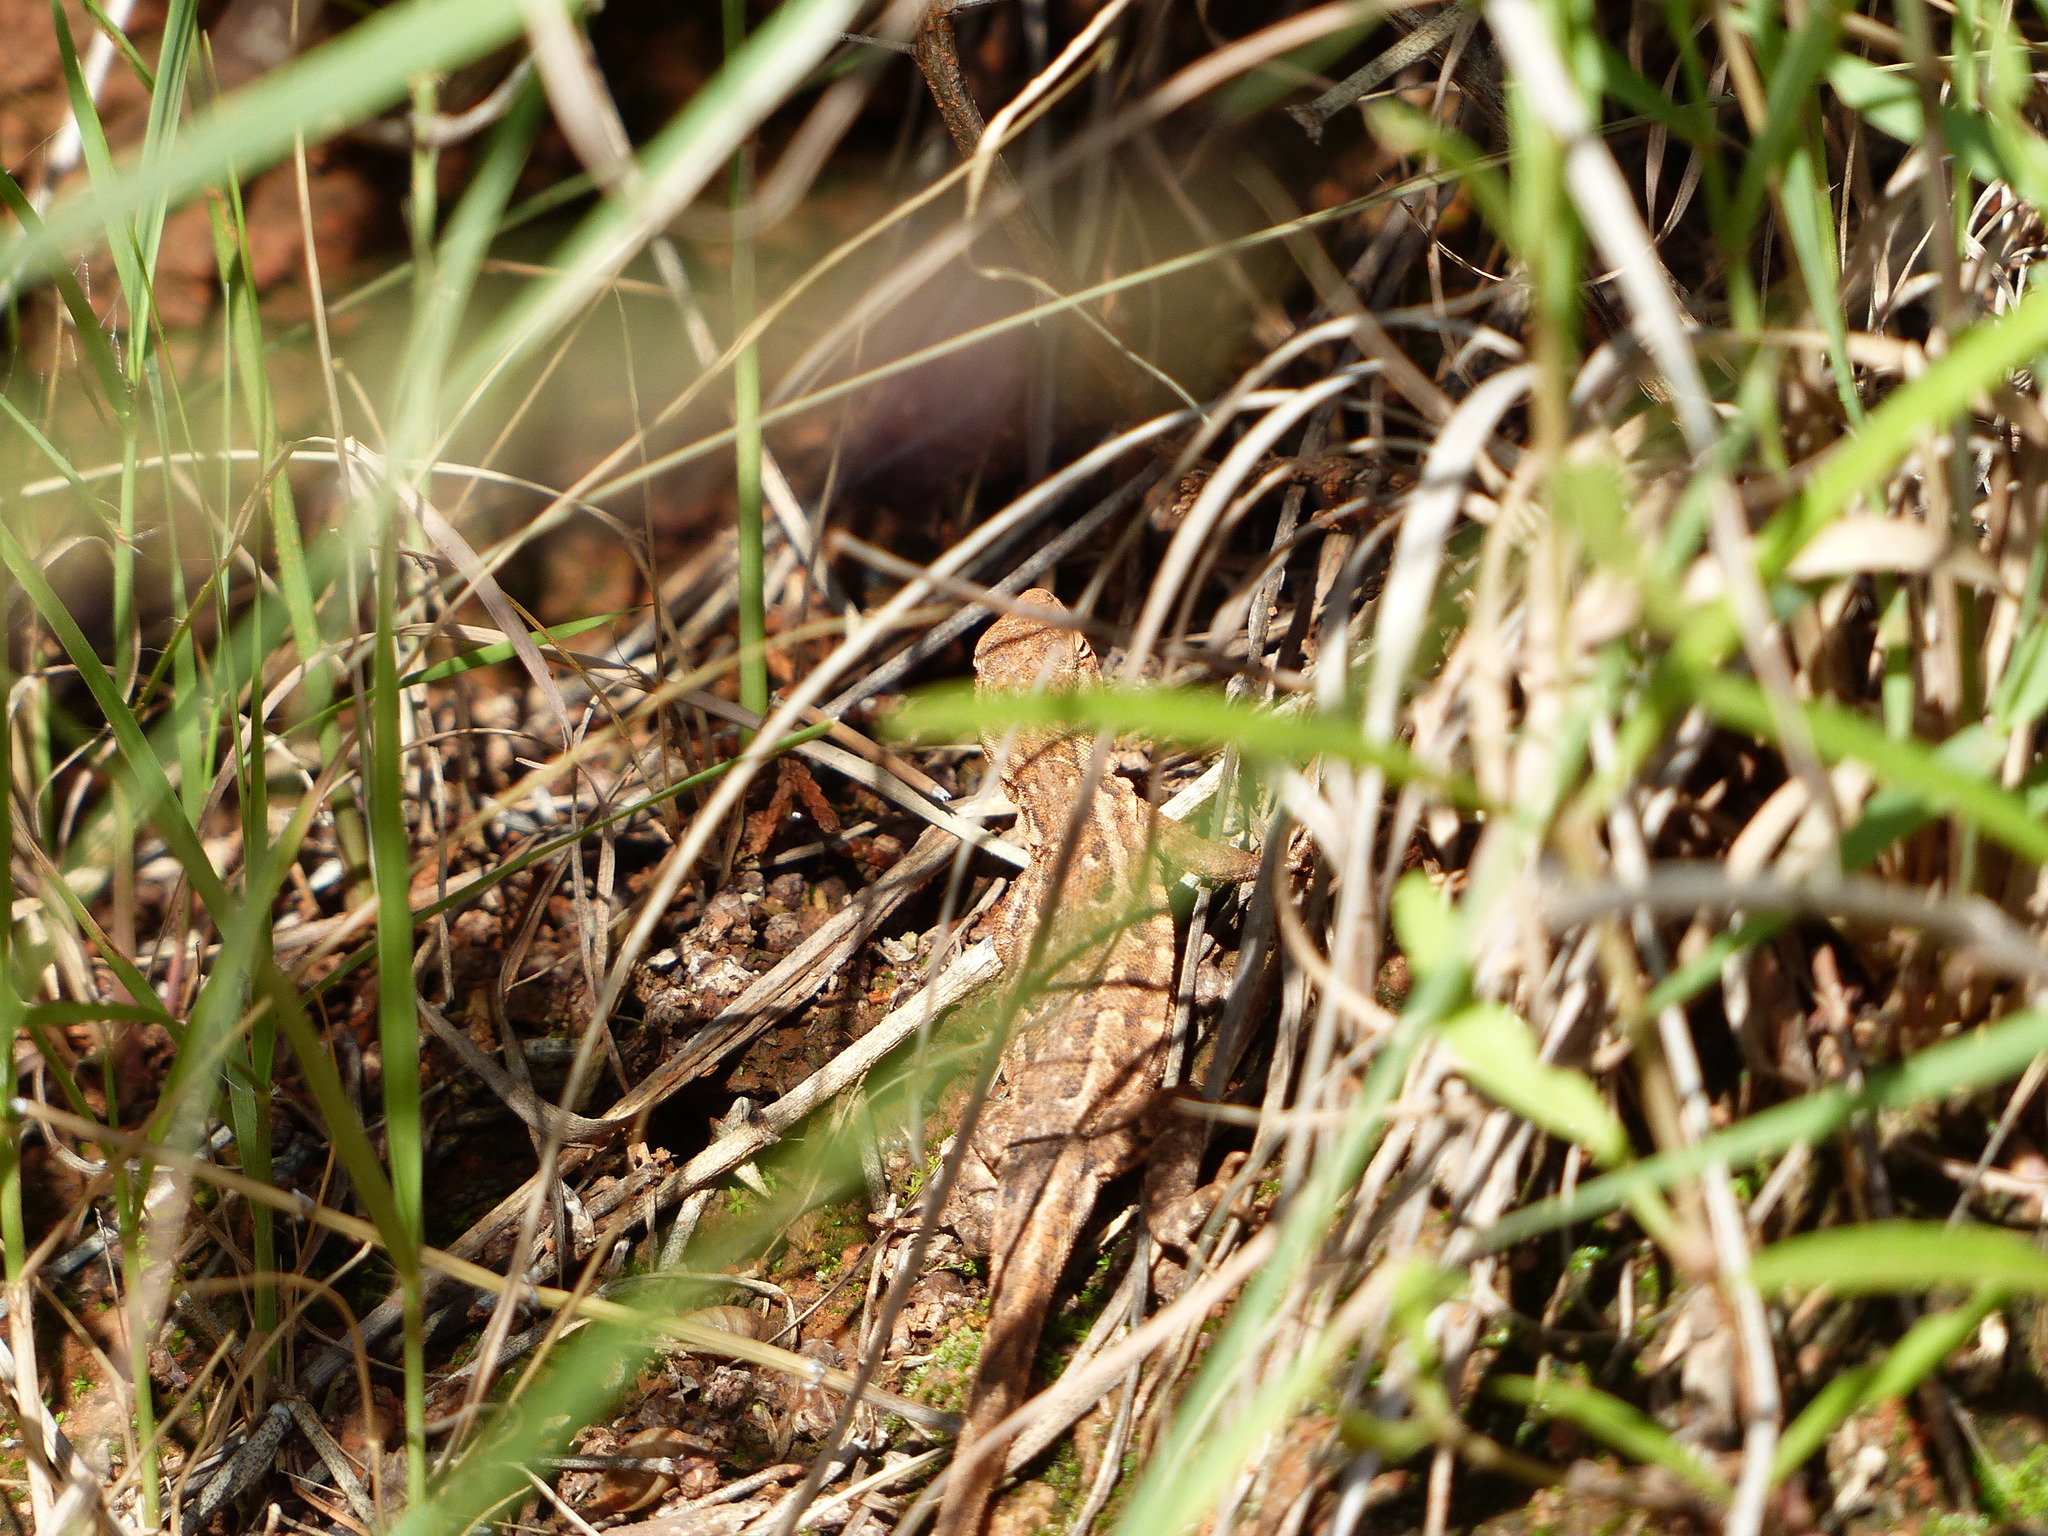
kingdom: Animalia
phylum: Chordata
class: Squamata
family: Phrynosomatidae
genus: Uta
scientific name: Uta stansburiana
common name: Side-blotched lizard
